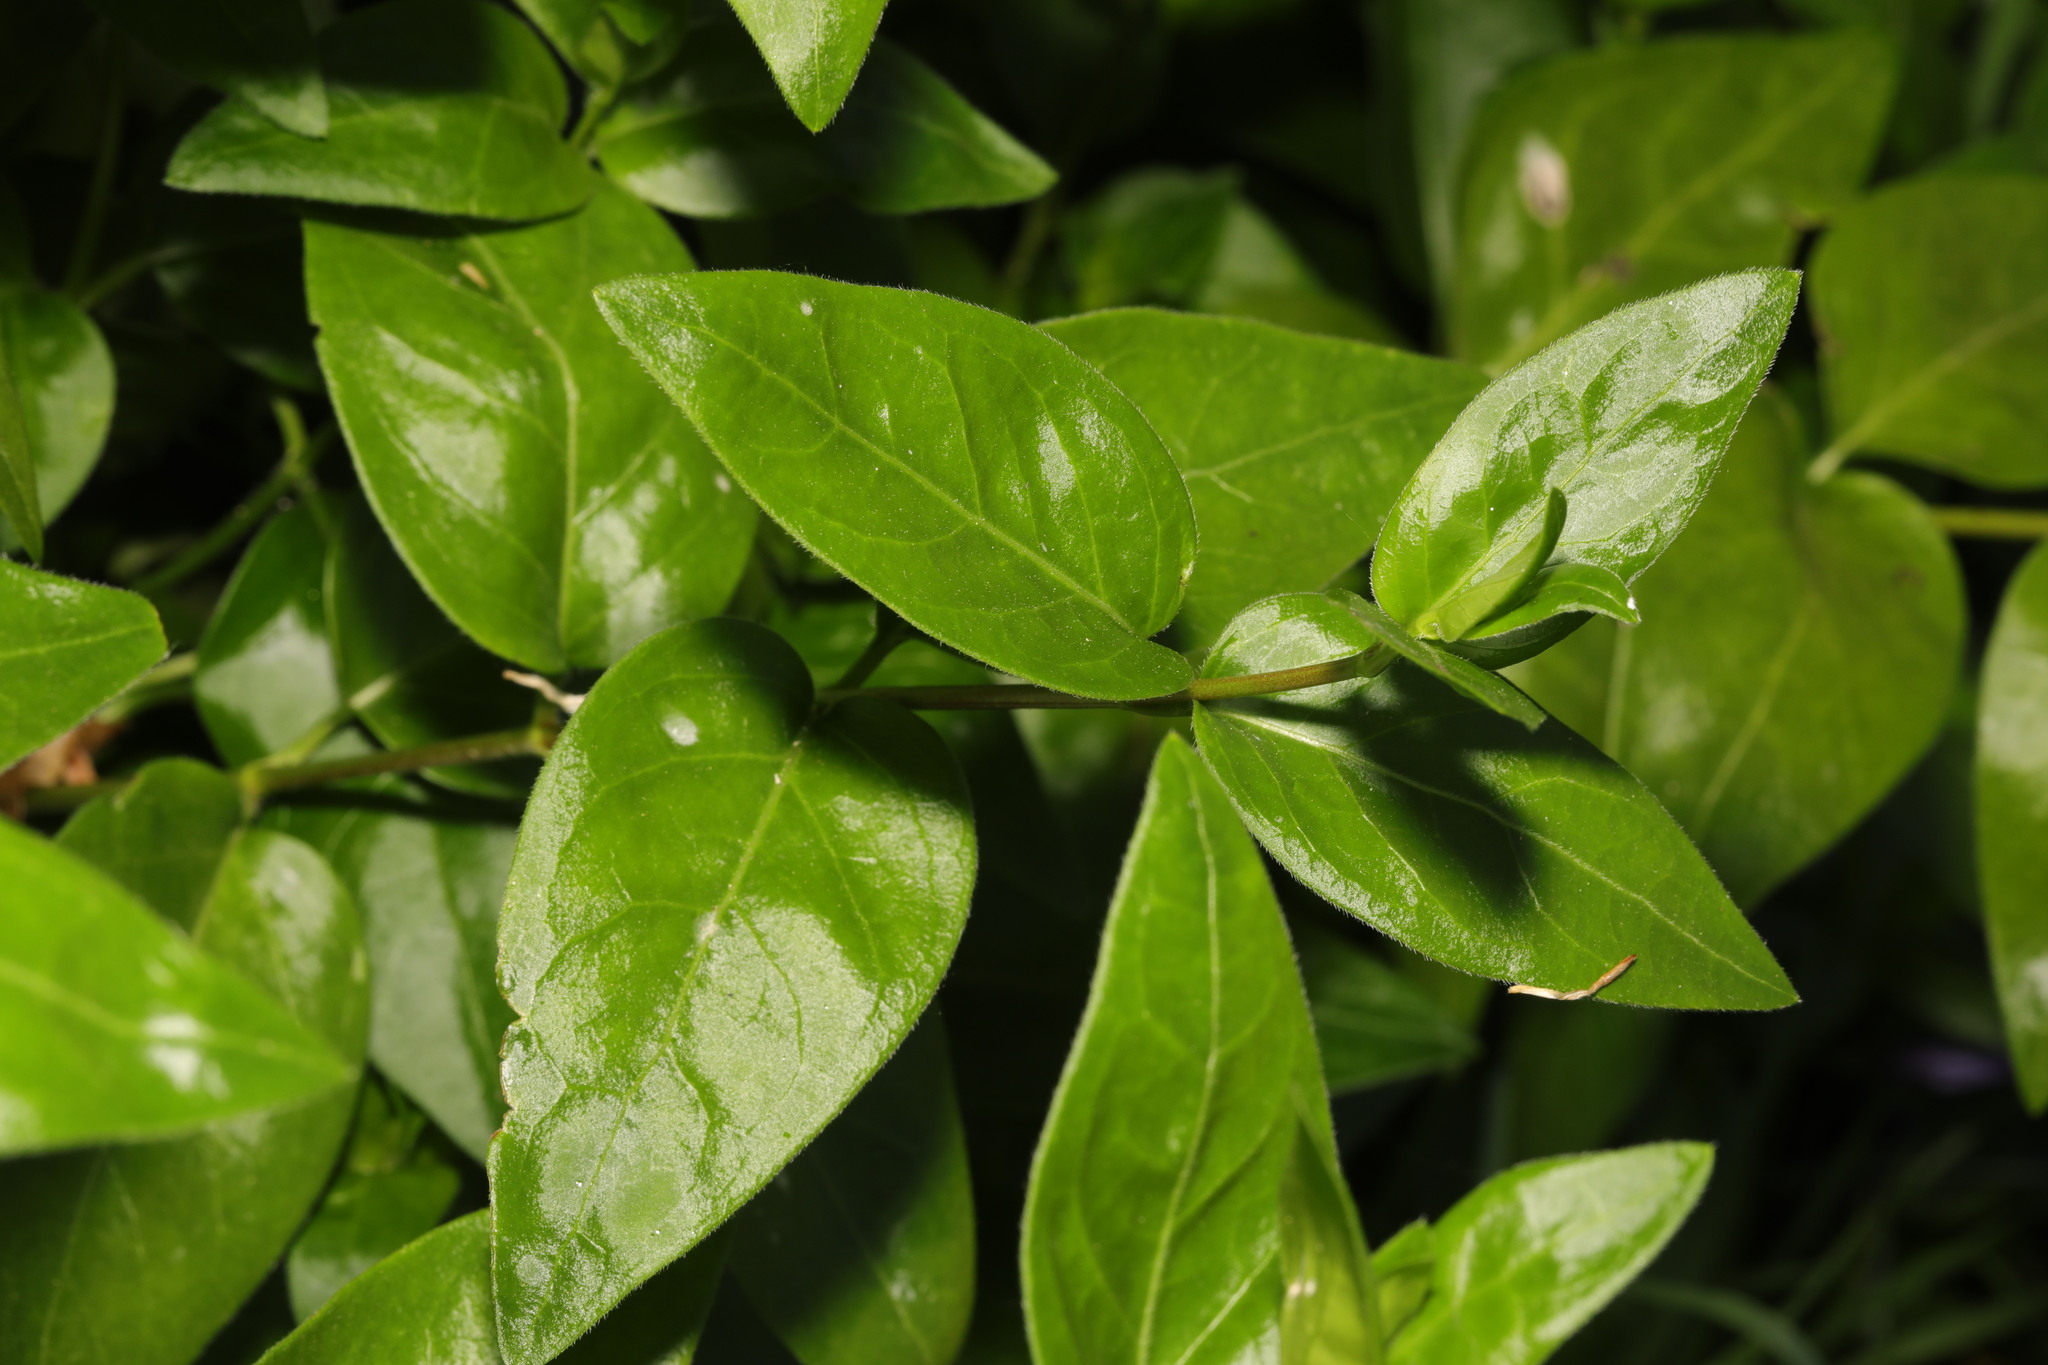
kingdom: Plantae
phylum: Tracheophyta
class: Magnoliopsida
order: Gentianales
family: Apocynaceae
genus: Vinca
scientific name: Vinca major
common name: Greater periwinkle
